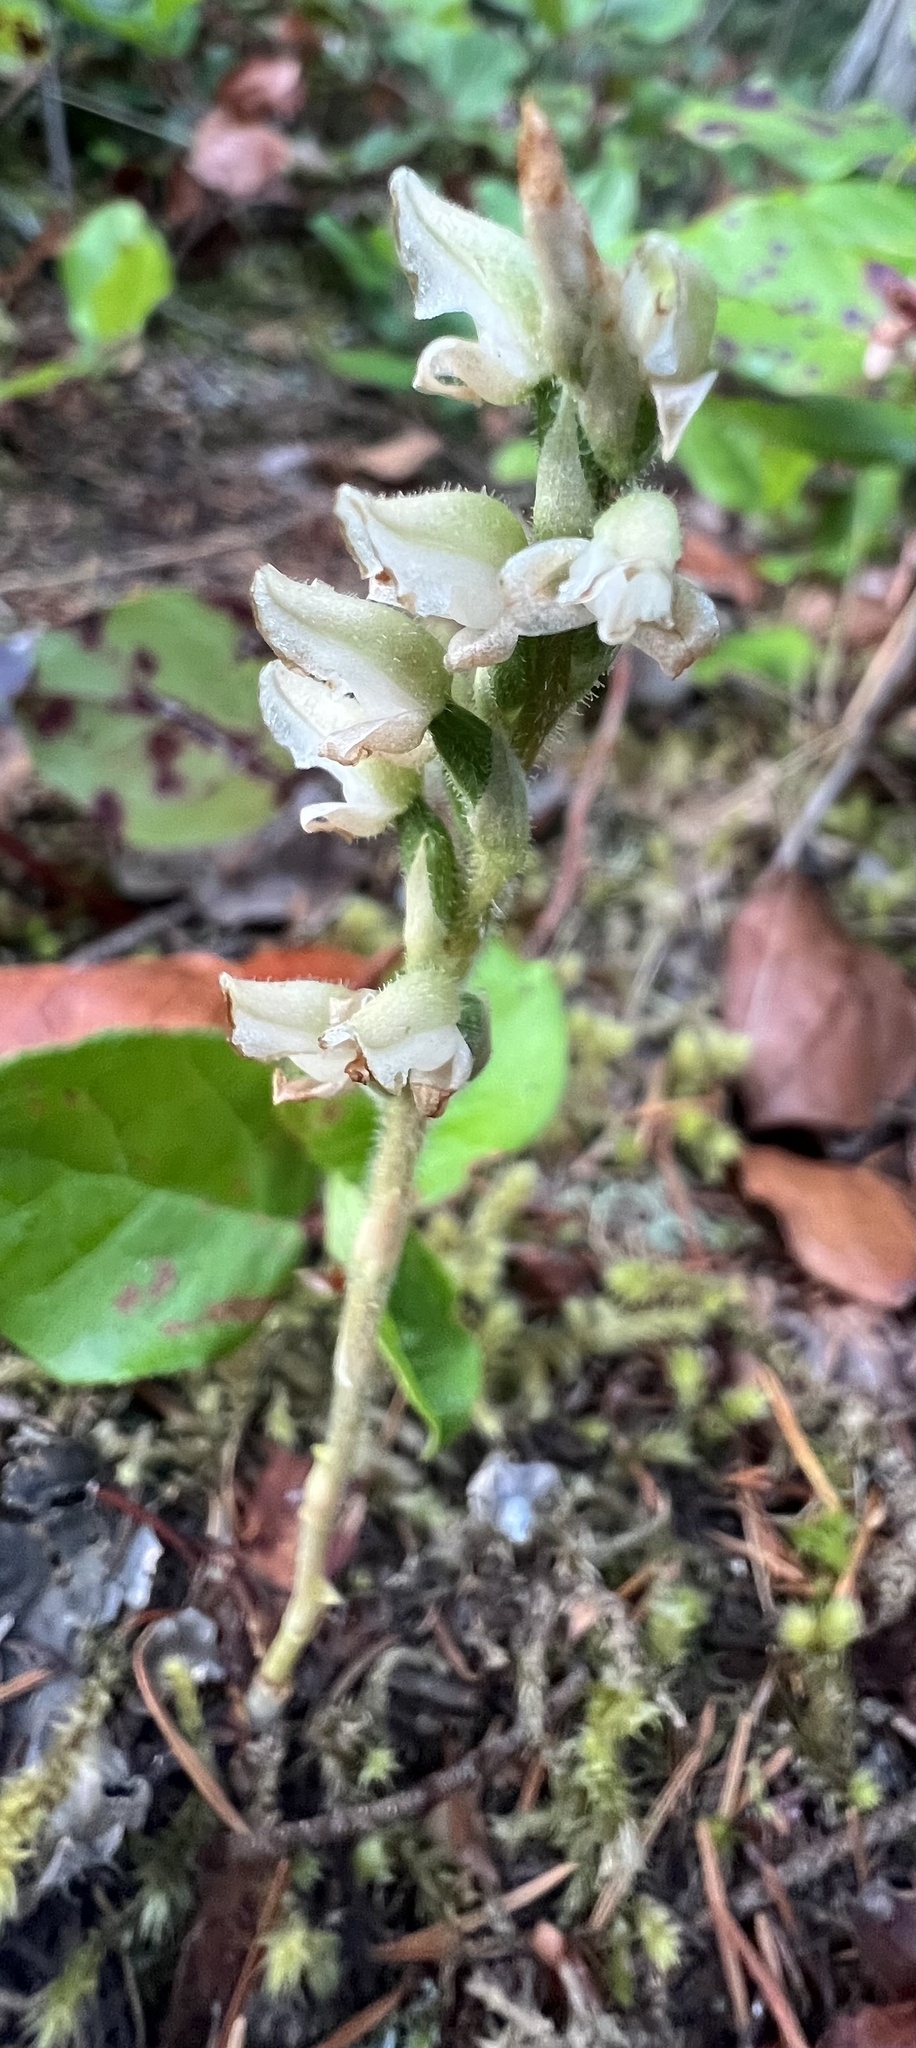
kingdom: Plantae
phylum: Tracheophyta
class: Liliopsida
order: Asparagales
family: Orchidaceae
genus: Goodyera
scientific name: Goodyera oblongifolia
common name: Giant rattlesnake-plantain
